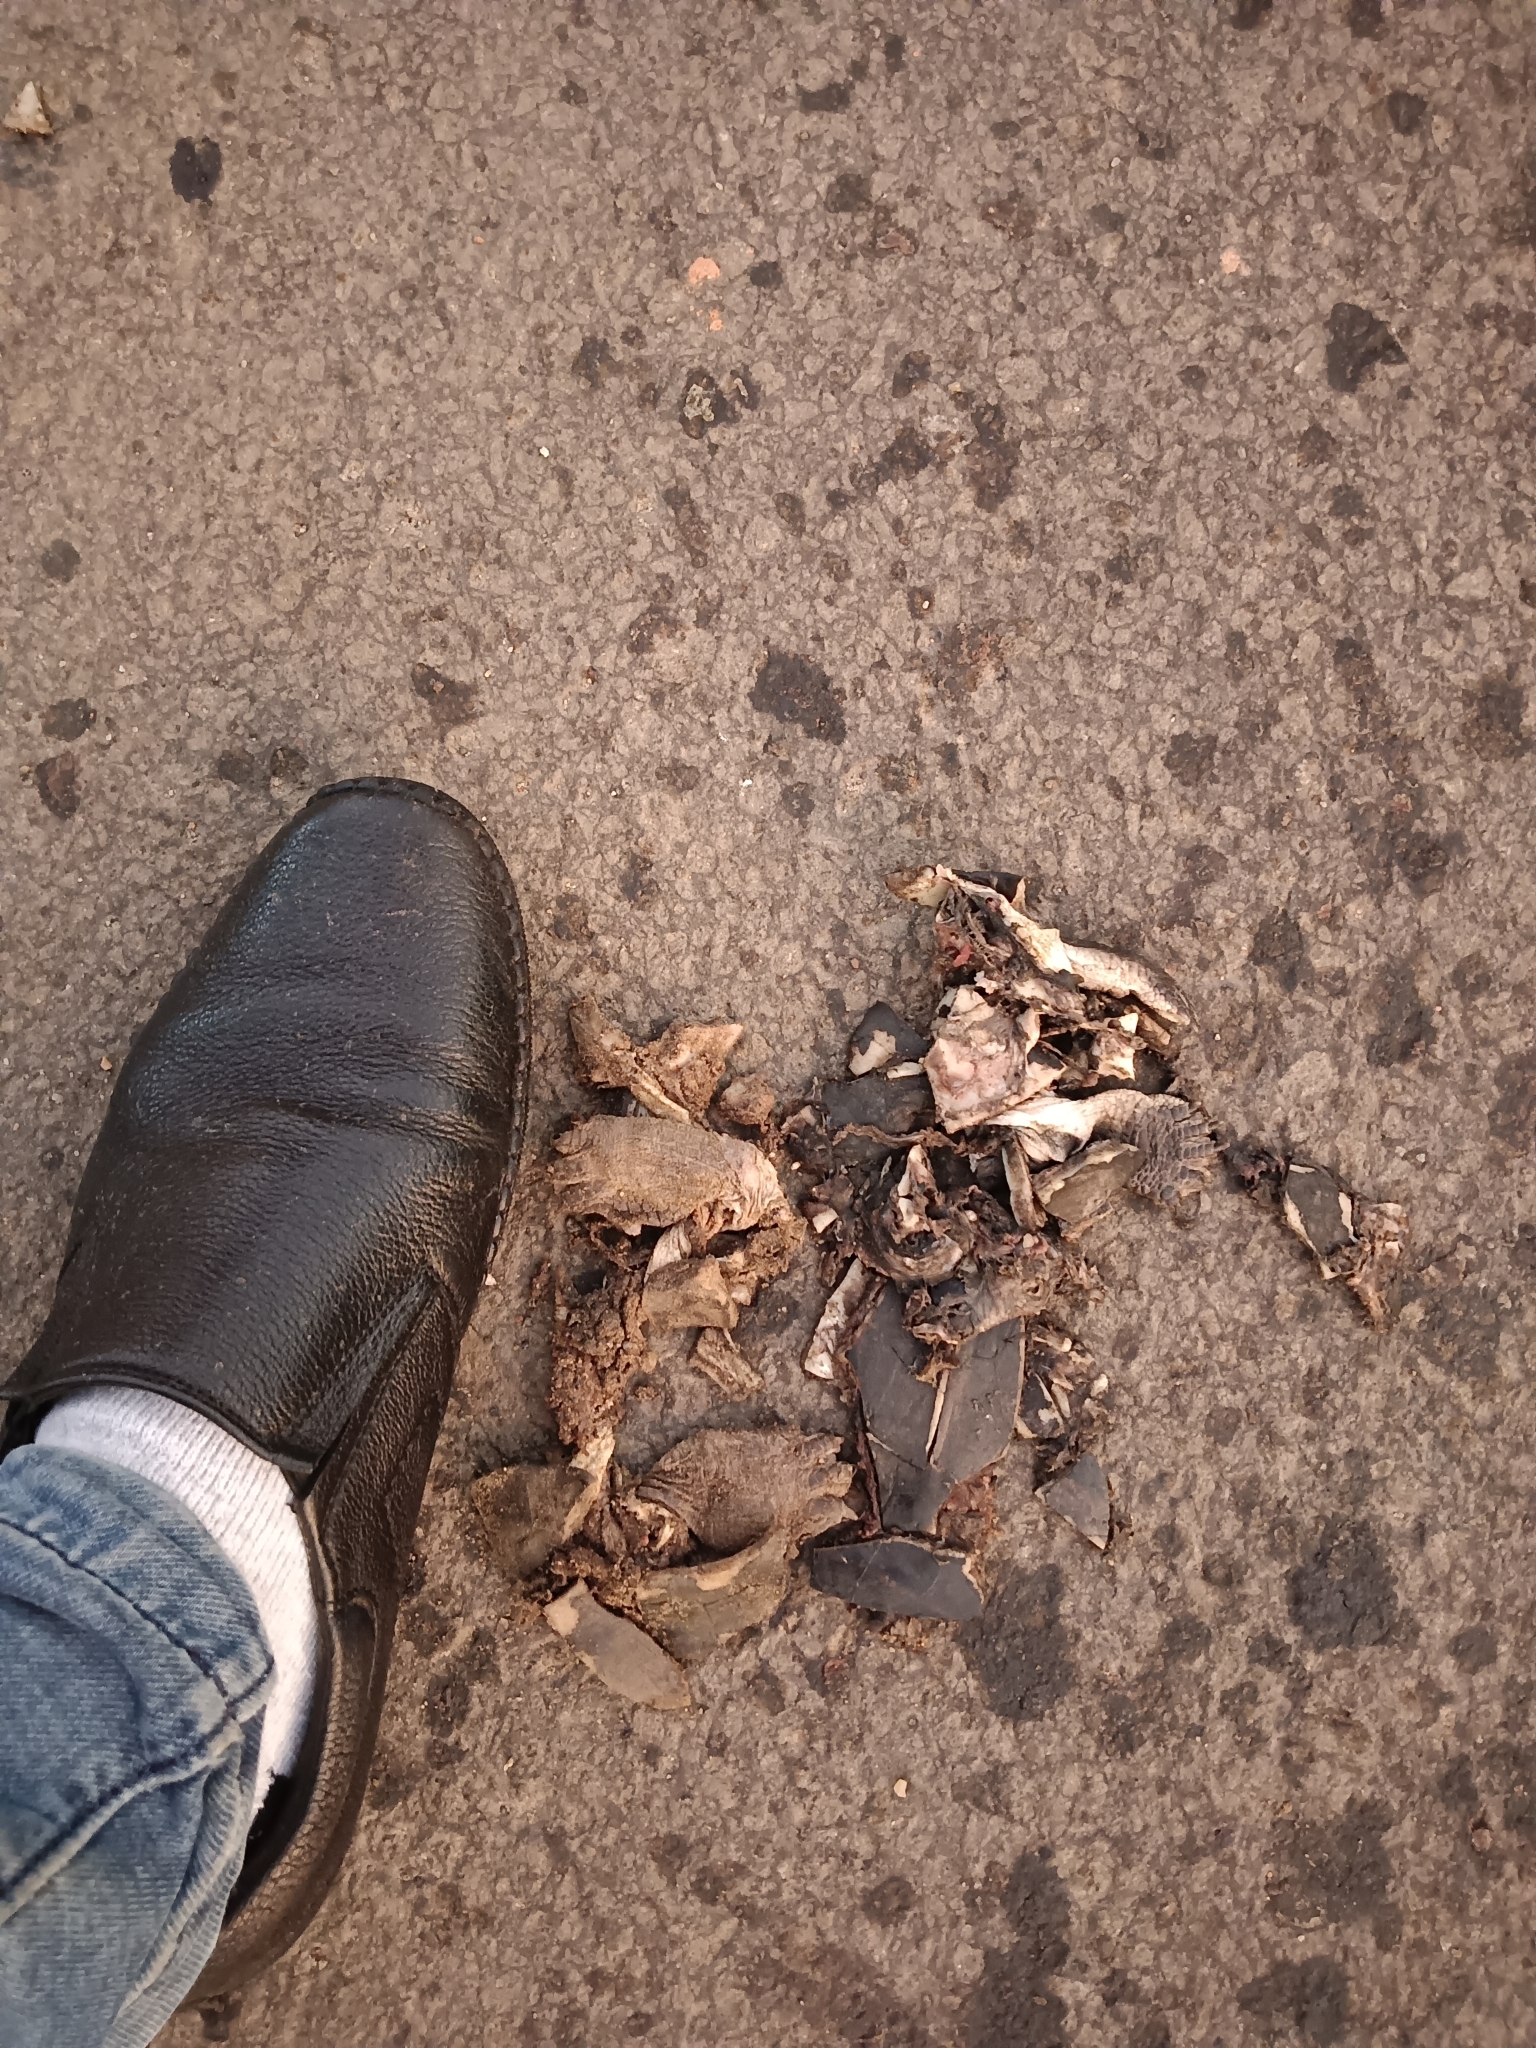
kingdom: Animalia
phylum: Chordata
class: Testudines
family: Geoemydidae
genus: Melanochelys
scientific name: Melanochelys trijuga
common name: Indian black turtle
